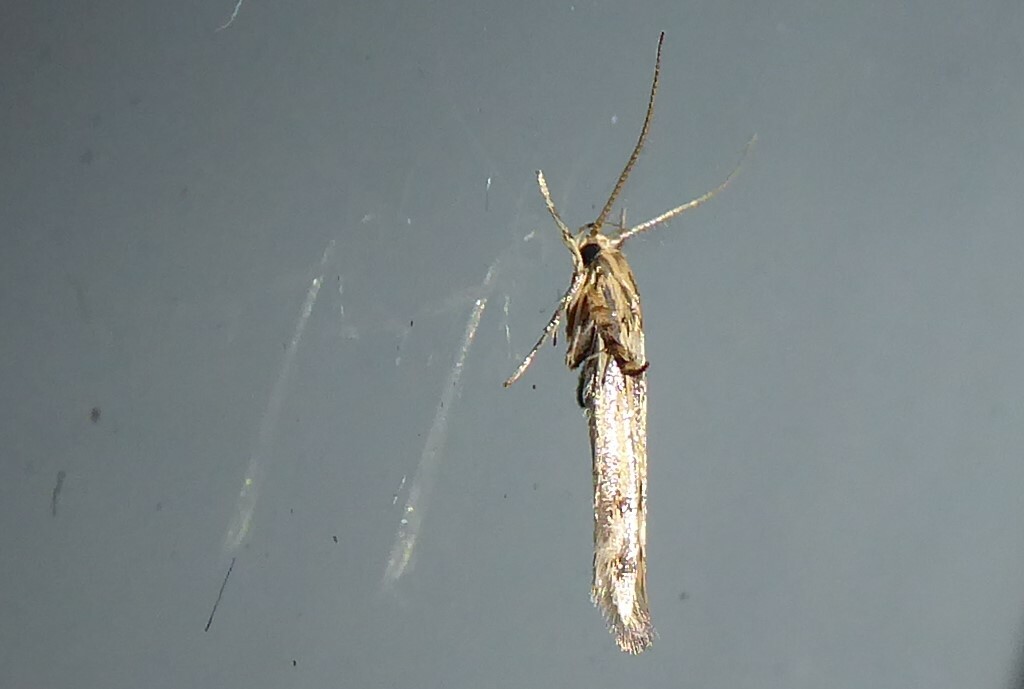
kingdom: Animalia
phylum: Arthropoda
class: Insecta
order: Lepidoptera
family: Stathmopodidae
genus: Stathmopoda
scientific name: Stathmopoda plumbiflua
